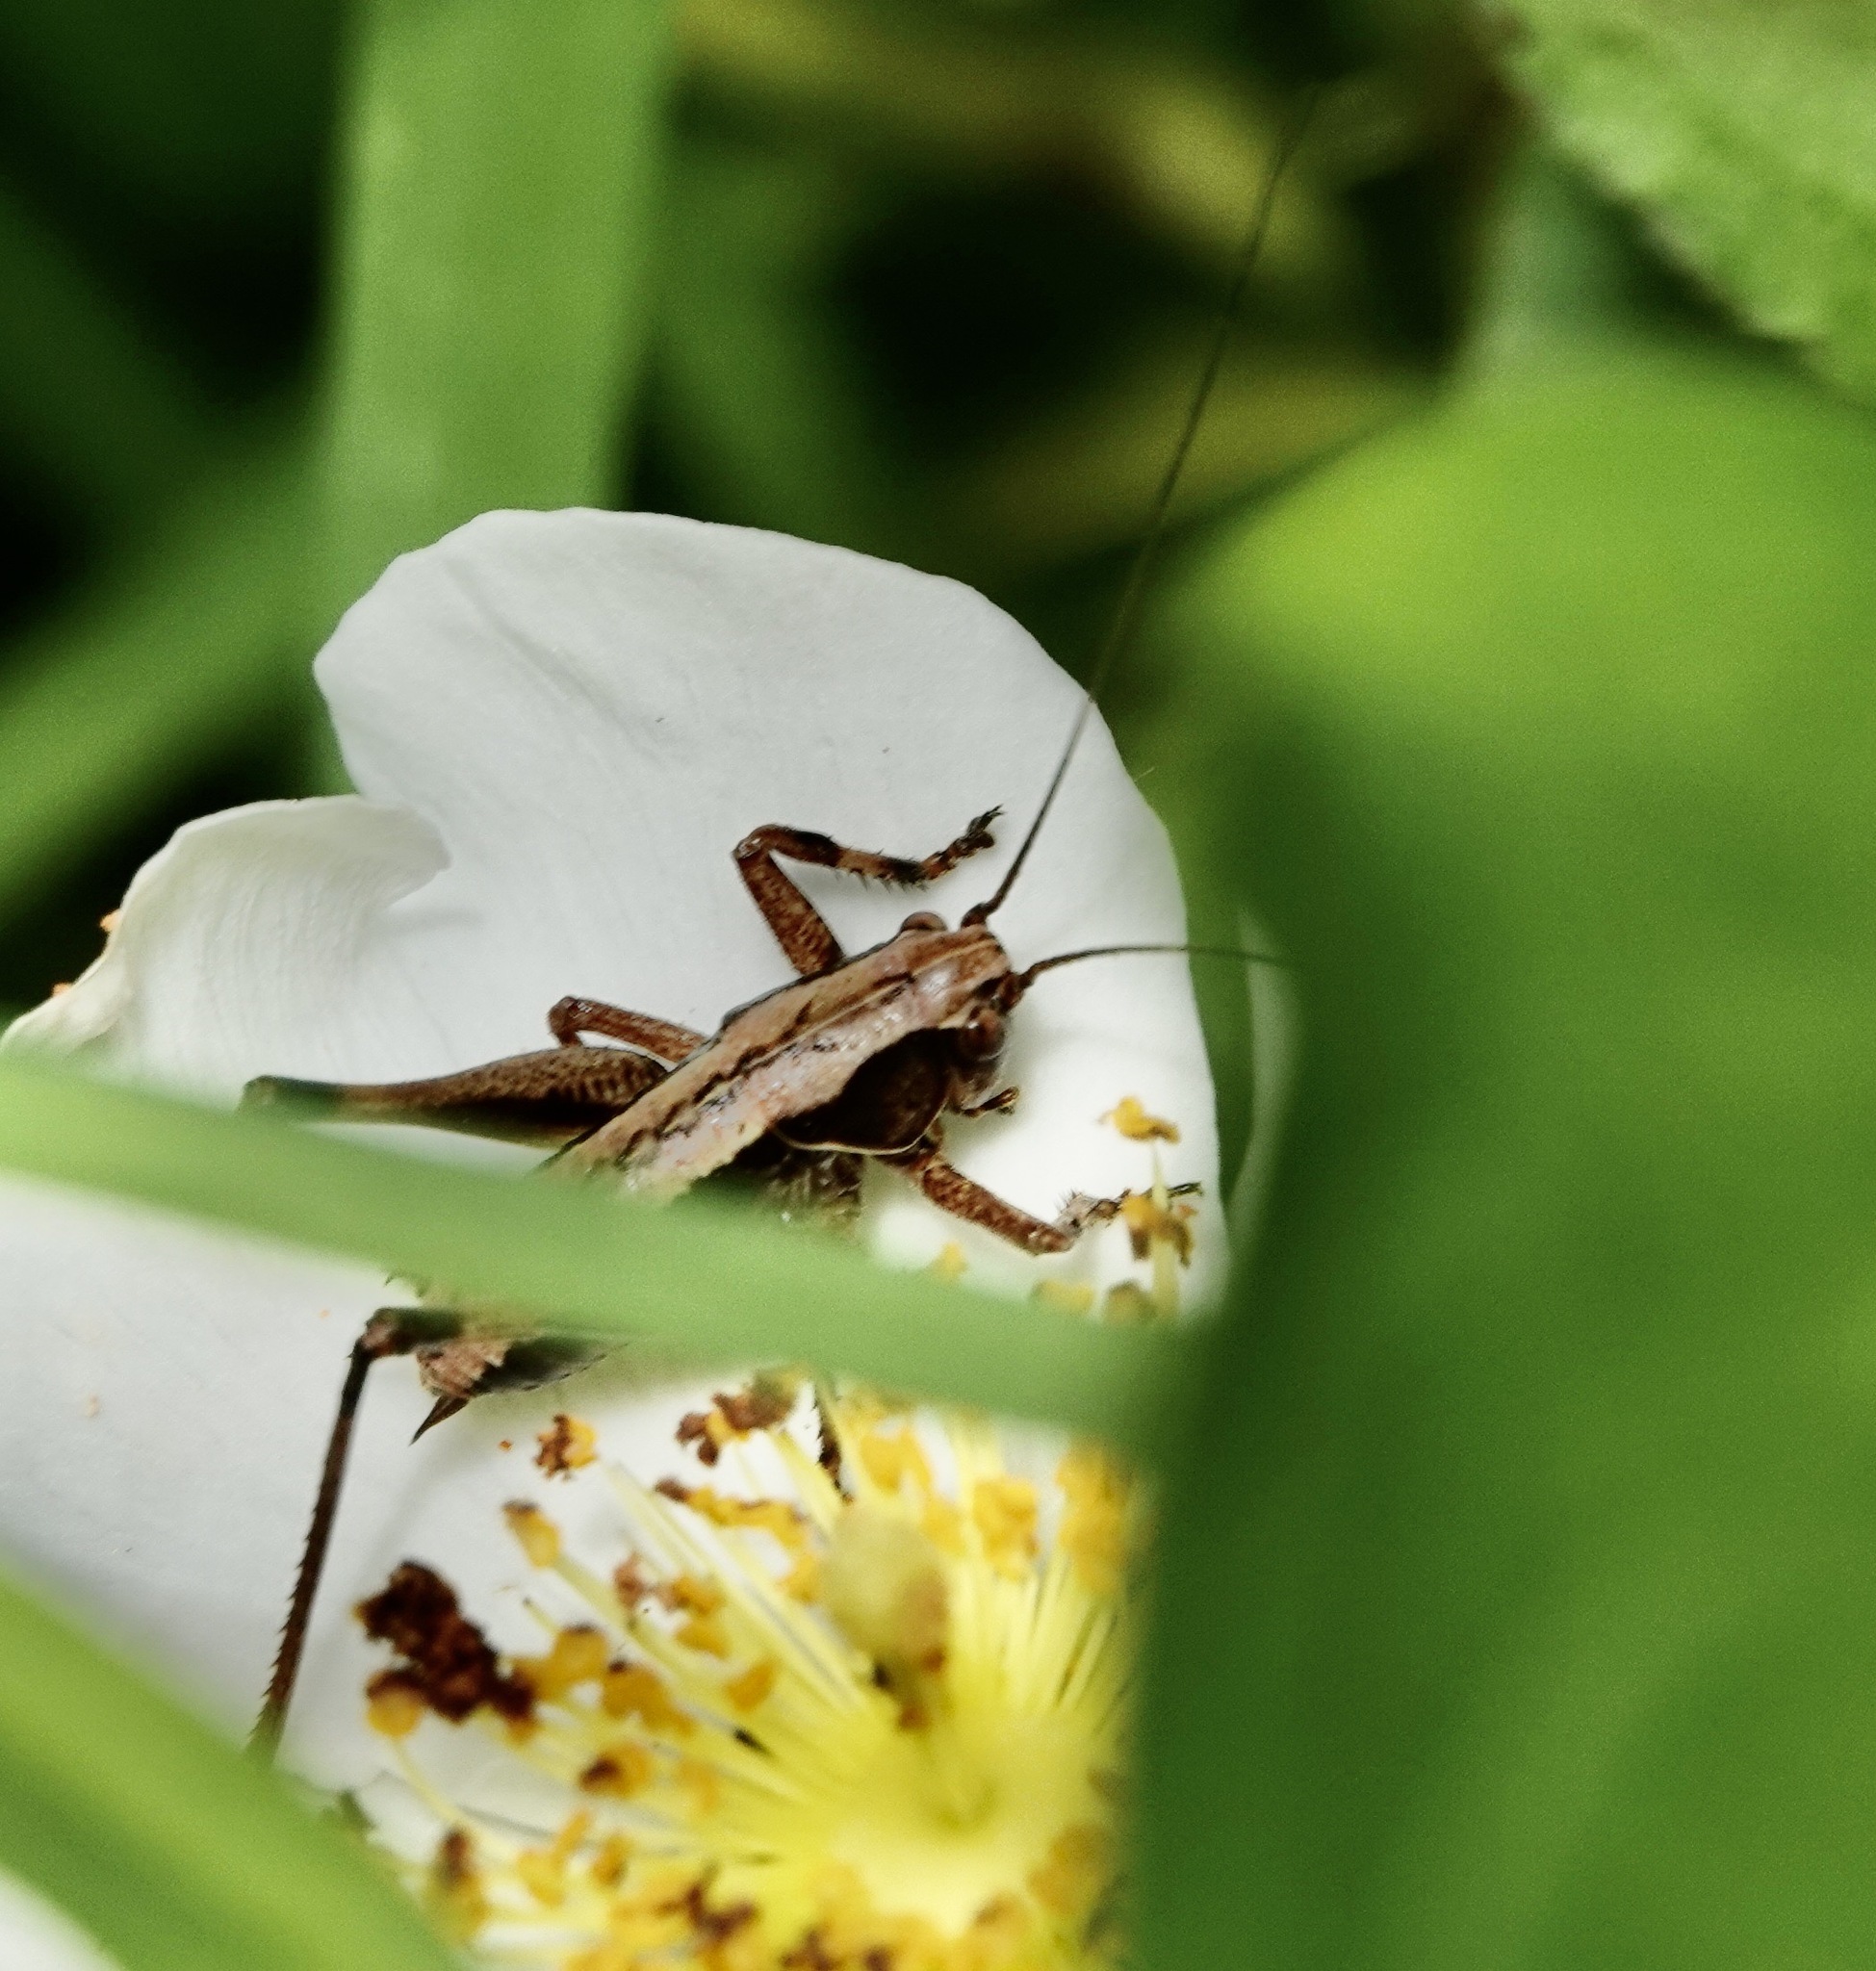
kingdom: Animalia
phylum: Arthropoda
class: Insecta
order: Orthoptera
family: Tettigoniidae
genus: Pholidoptera
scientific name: Pholidoptera griseoaptera
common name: Dark bush-cricket
